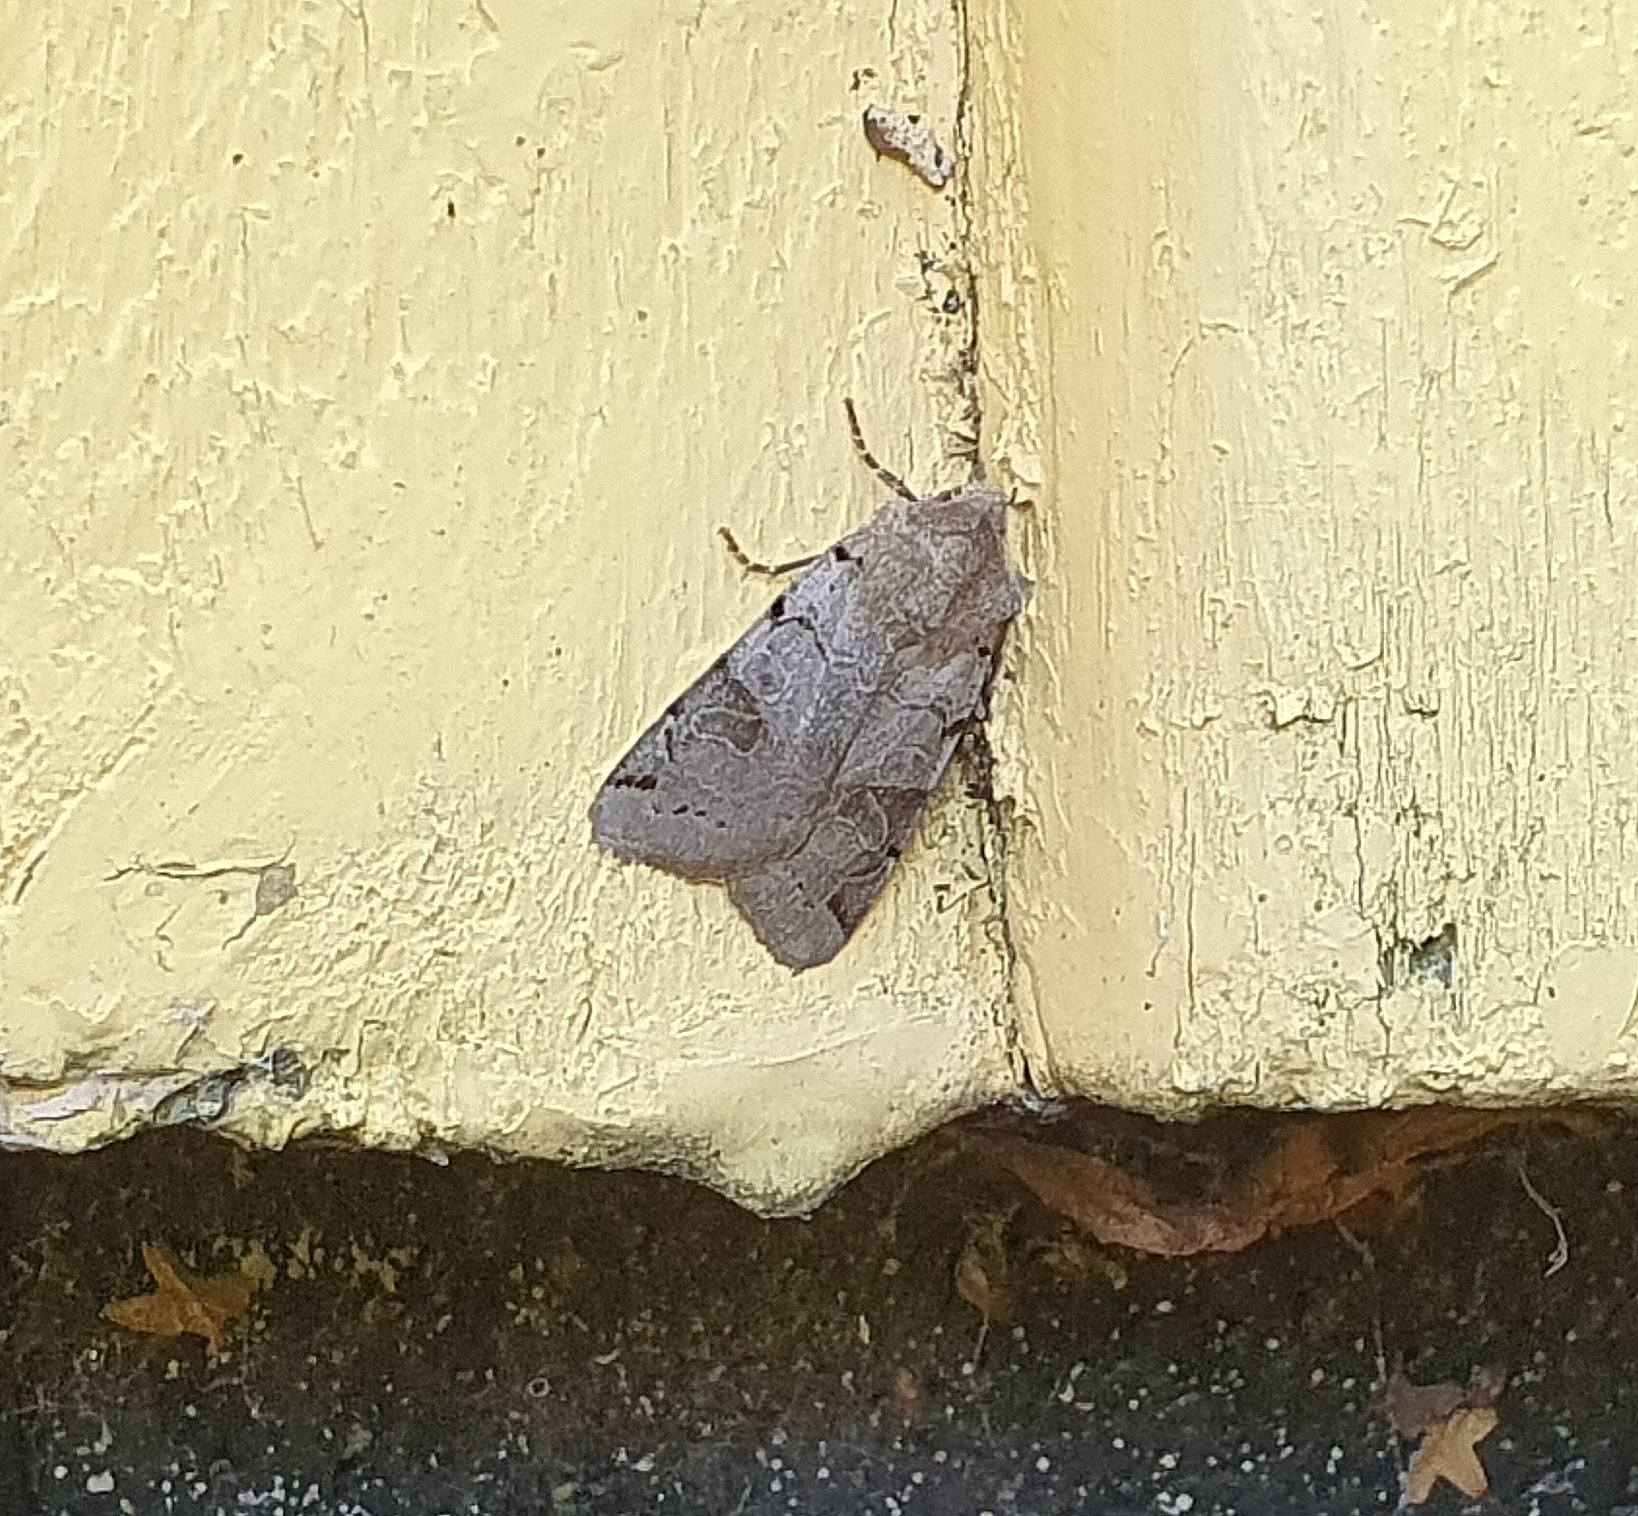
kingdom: Animalia
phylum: Arthropoda
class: Insecta
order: Lepidoptera
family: Noctuidae
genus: Agrochola
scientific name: Agrochola litura
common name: Brown-spot pinion
